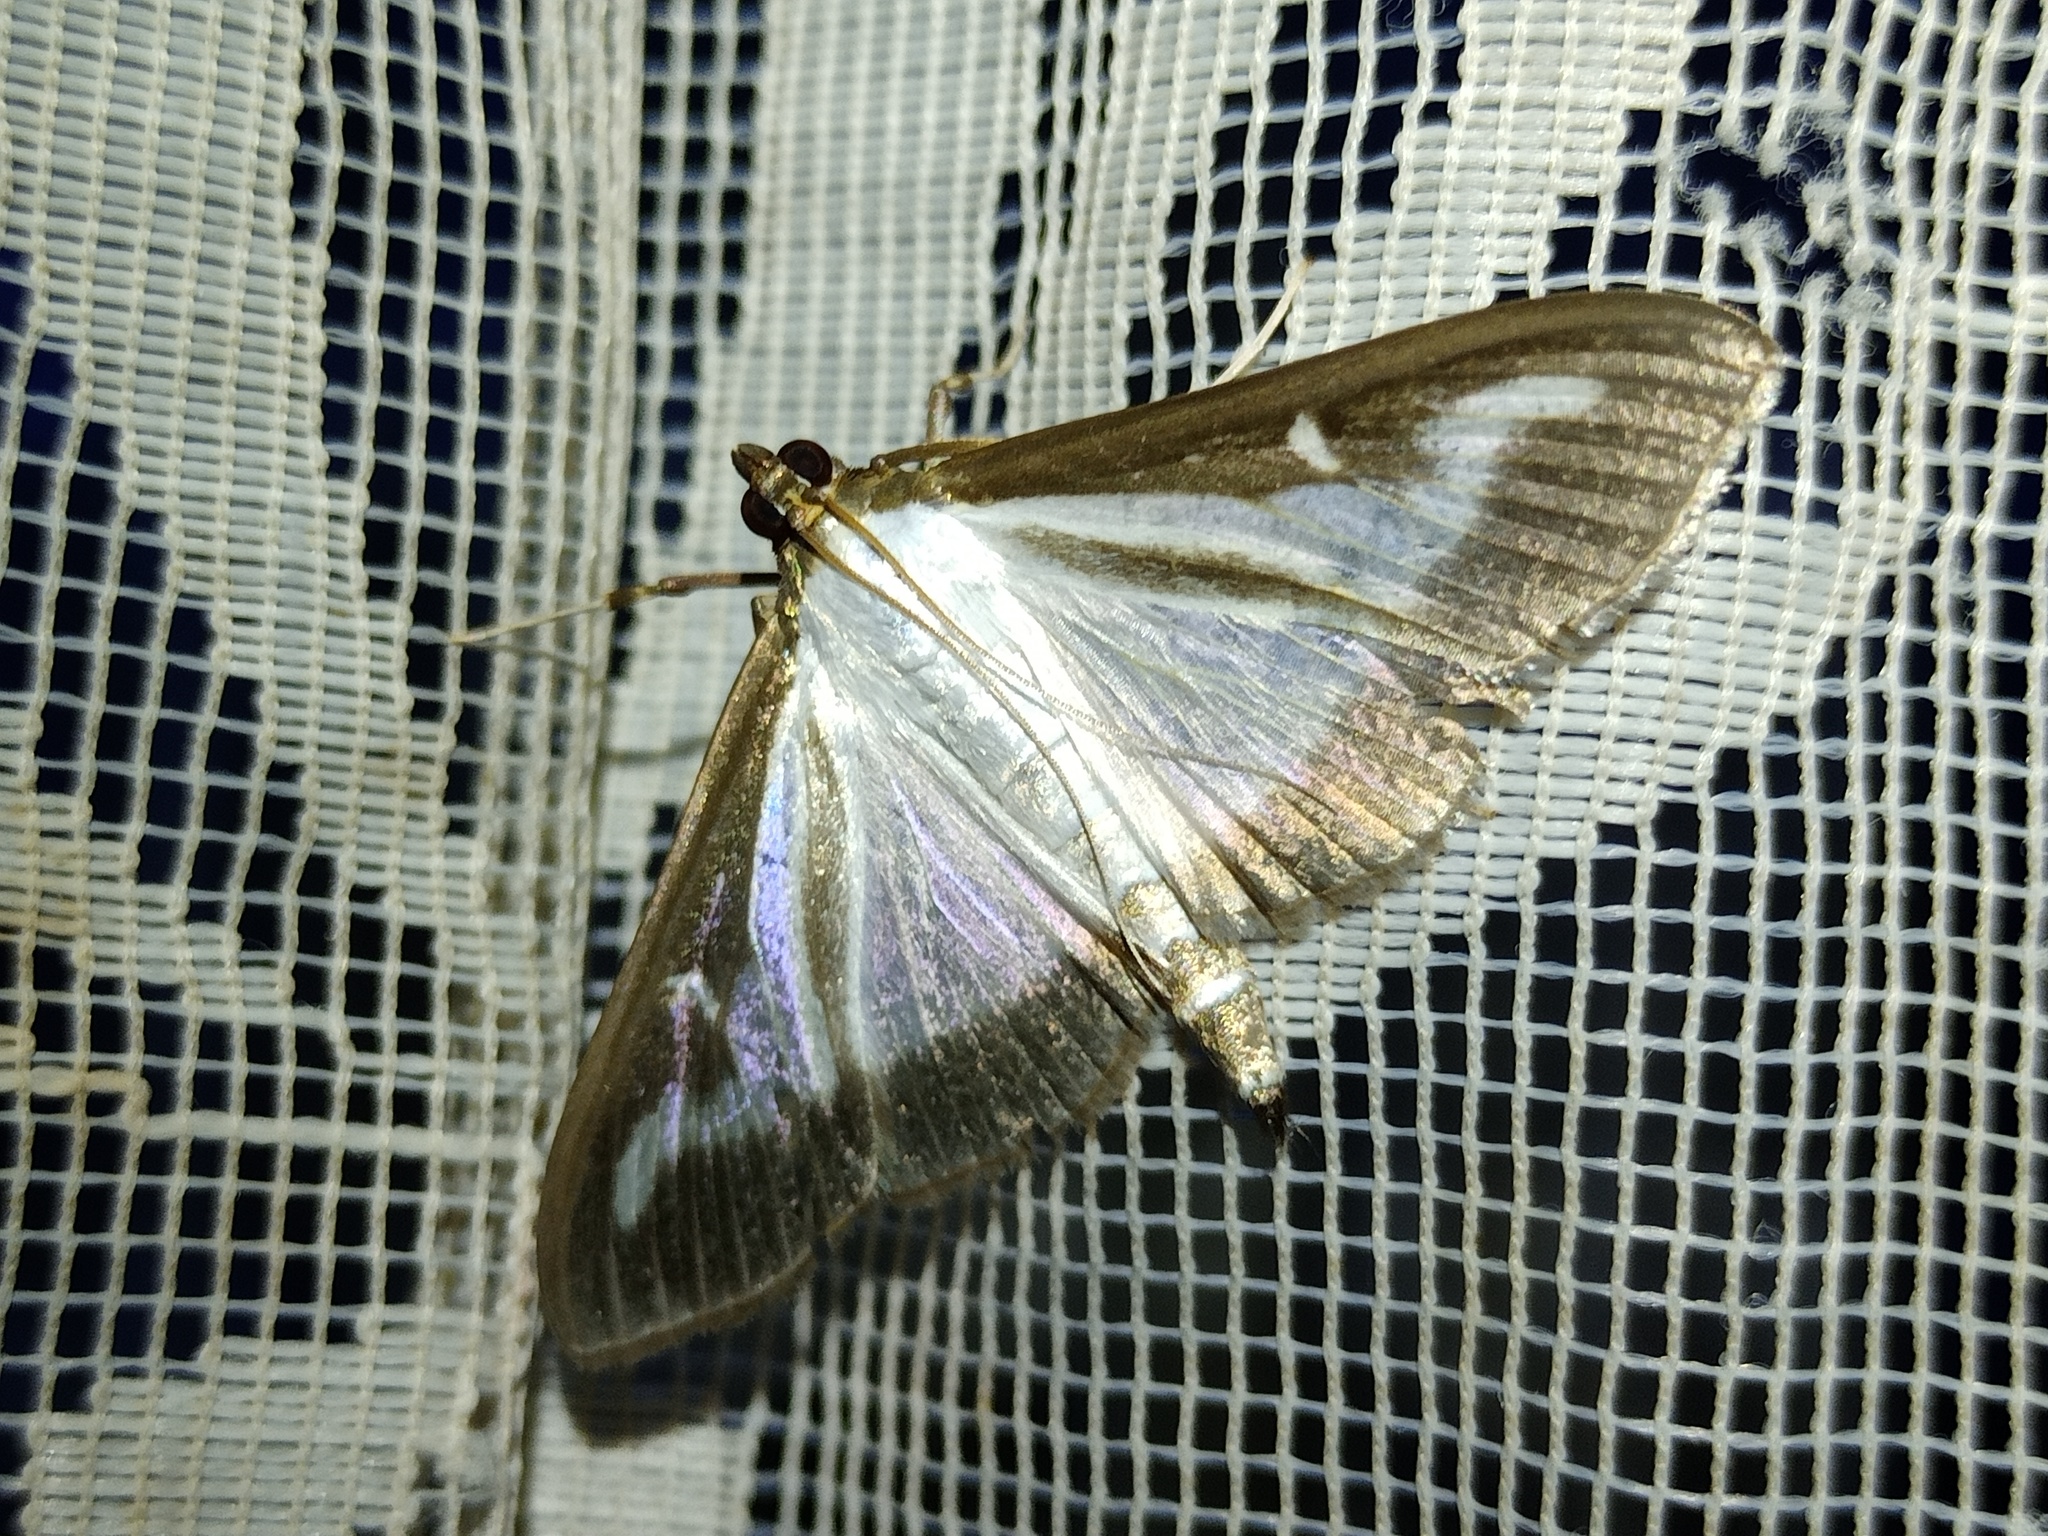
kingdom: Animalia
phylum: Arthropoda
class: Insecta
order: Lepidoptera
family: Crambidae
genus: Cydalima
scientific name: Cydalima perspectalis
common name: Box tree moth
